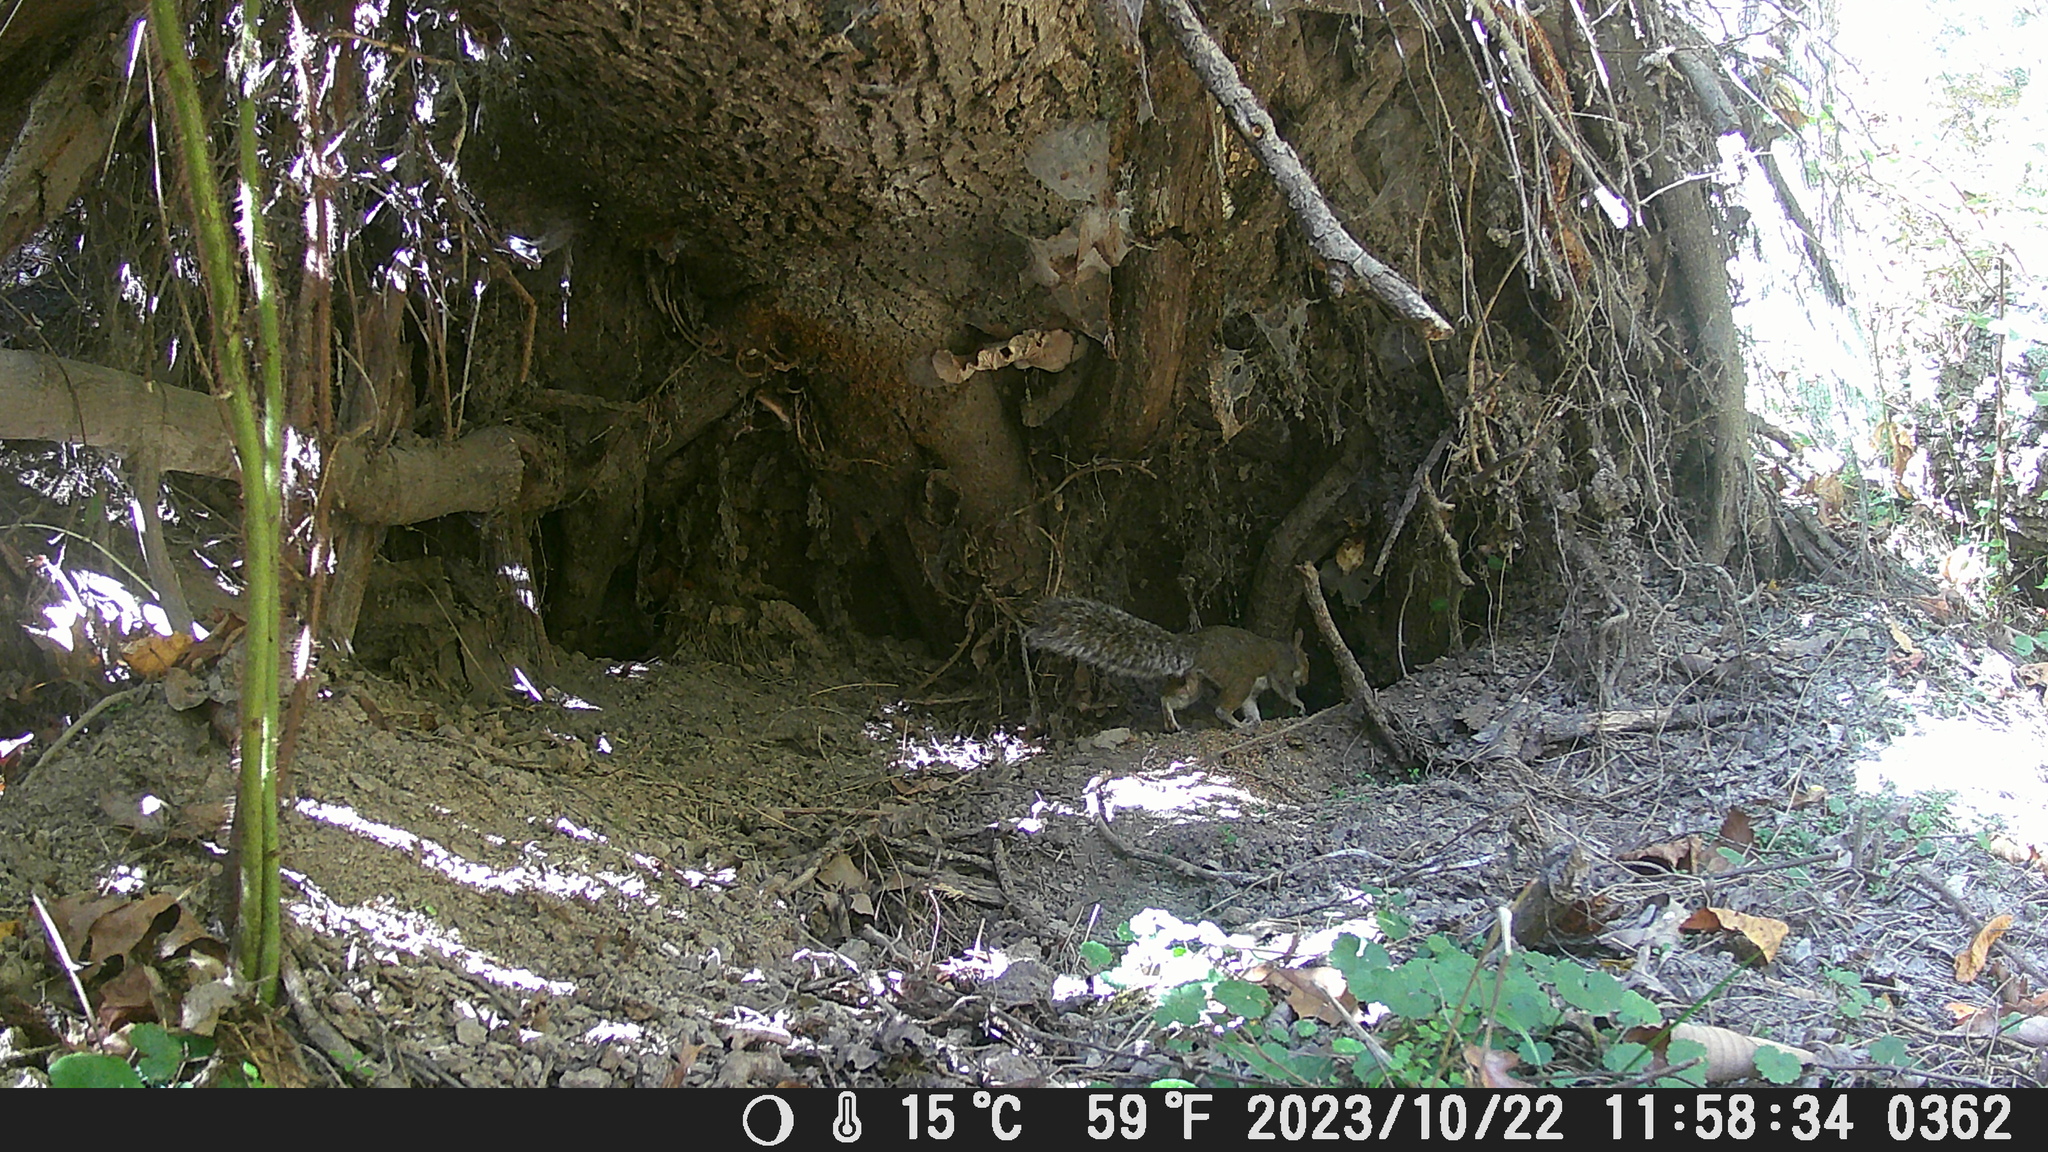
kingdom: Animalia
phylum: Chordata
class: Mammalia
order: Rodentia
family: Sciuridae
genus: Sciurus
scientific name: Sciurus carolinensis
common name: Eastern gray squirrel
